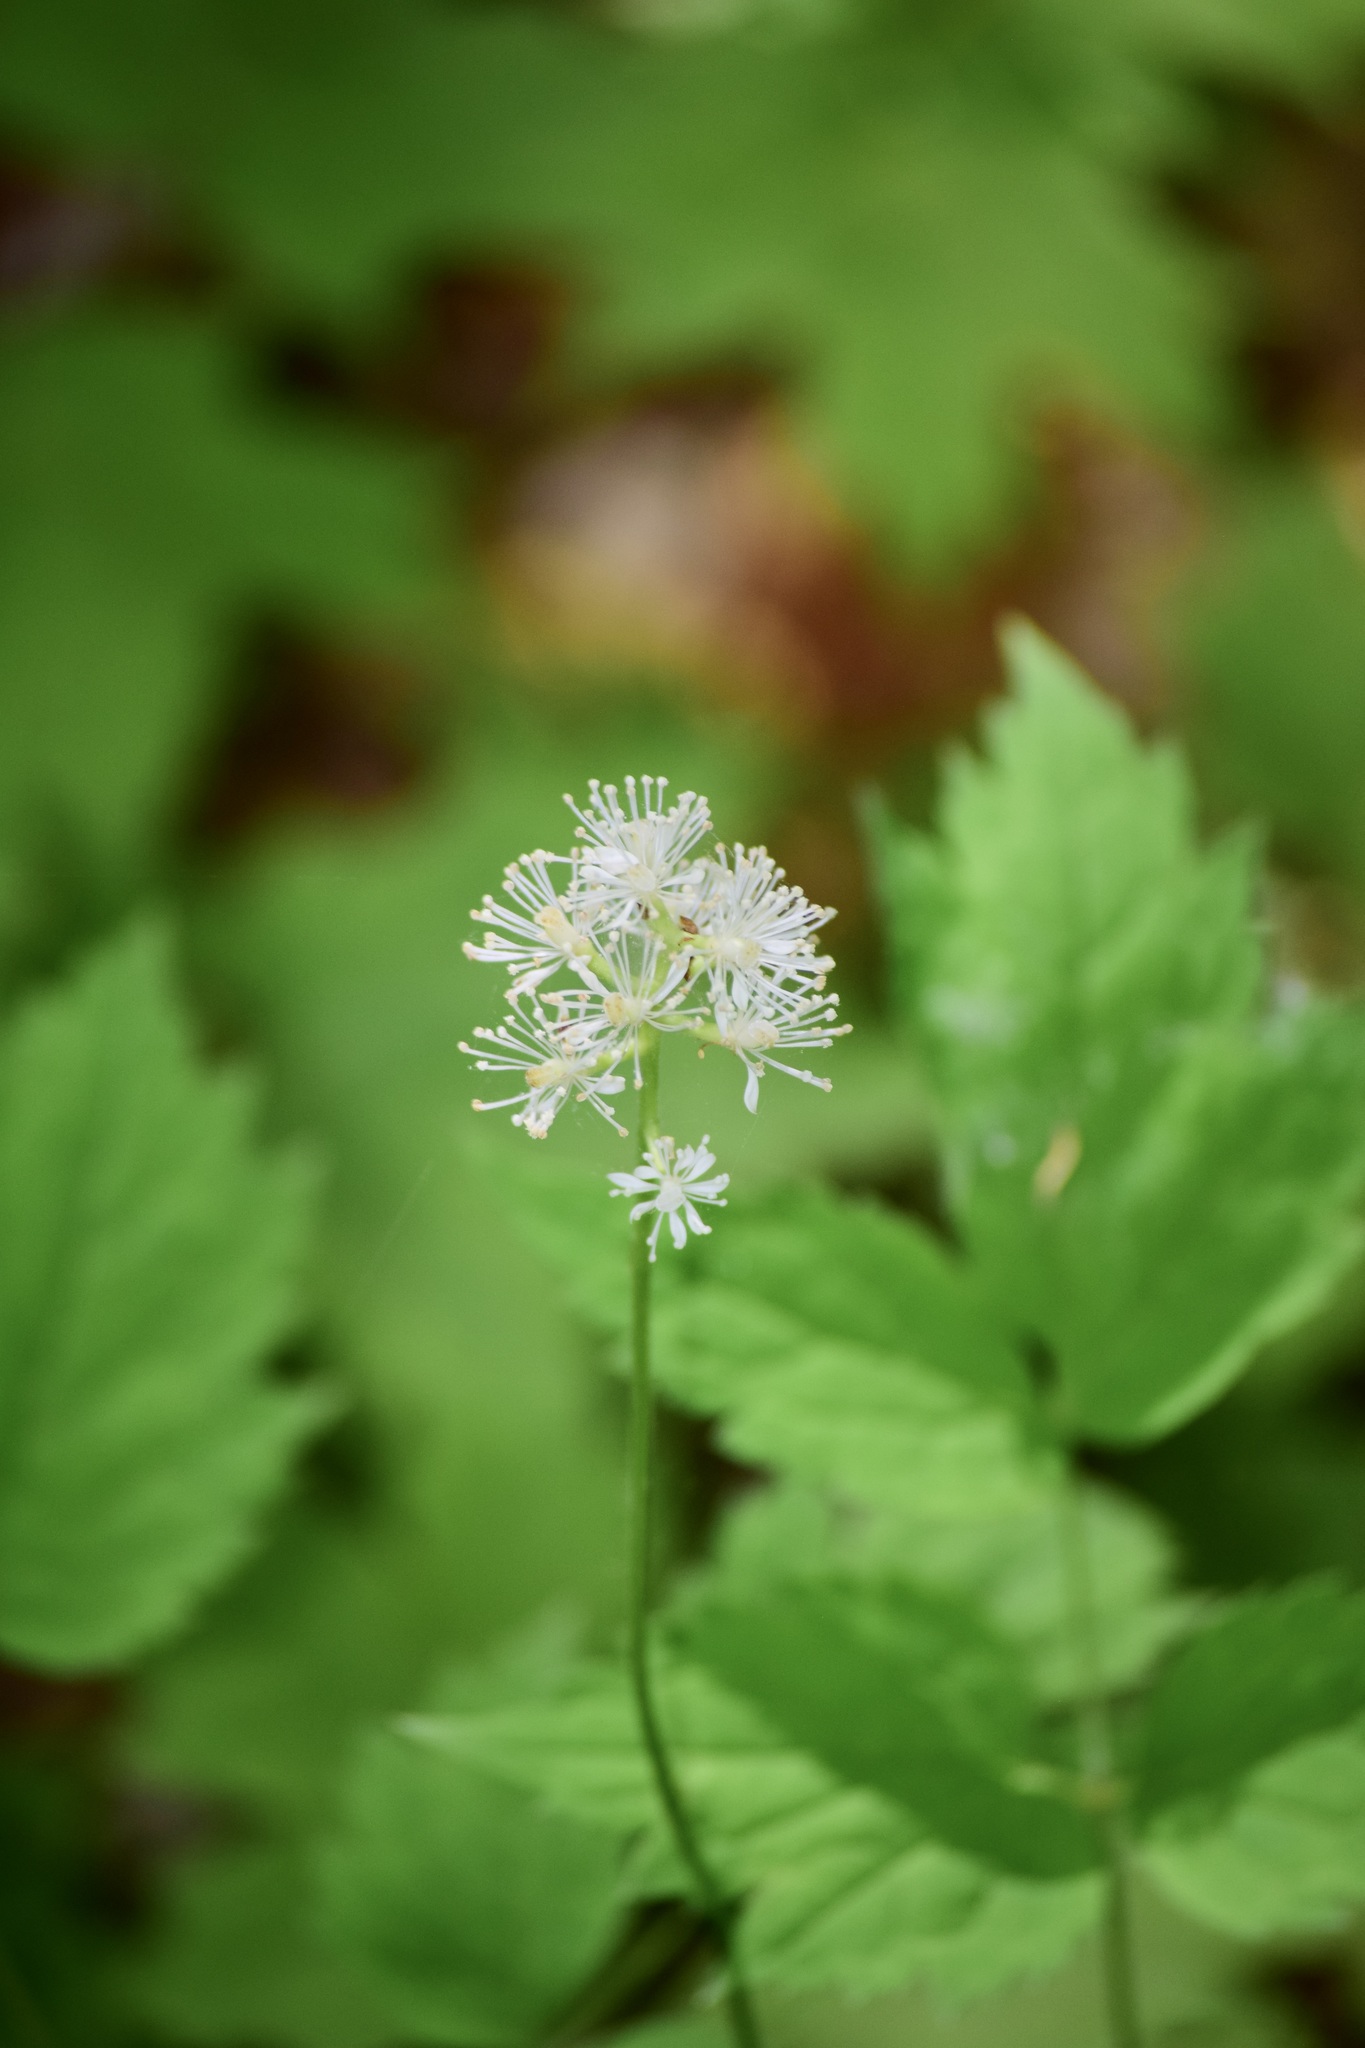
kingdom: Plantae
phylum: Tracheophyta
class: Magnoliopsida
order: Ranunculales
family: Ranunculaceae
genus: Actaea
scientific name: Actaea pachypoda
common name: Doll's-eyes
